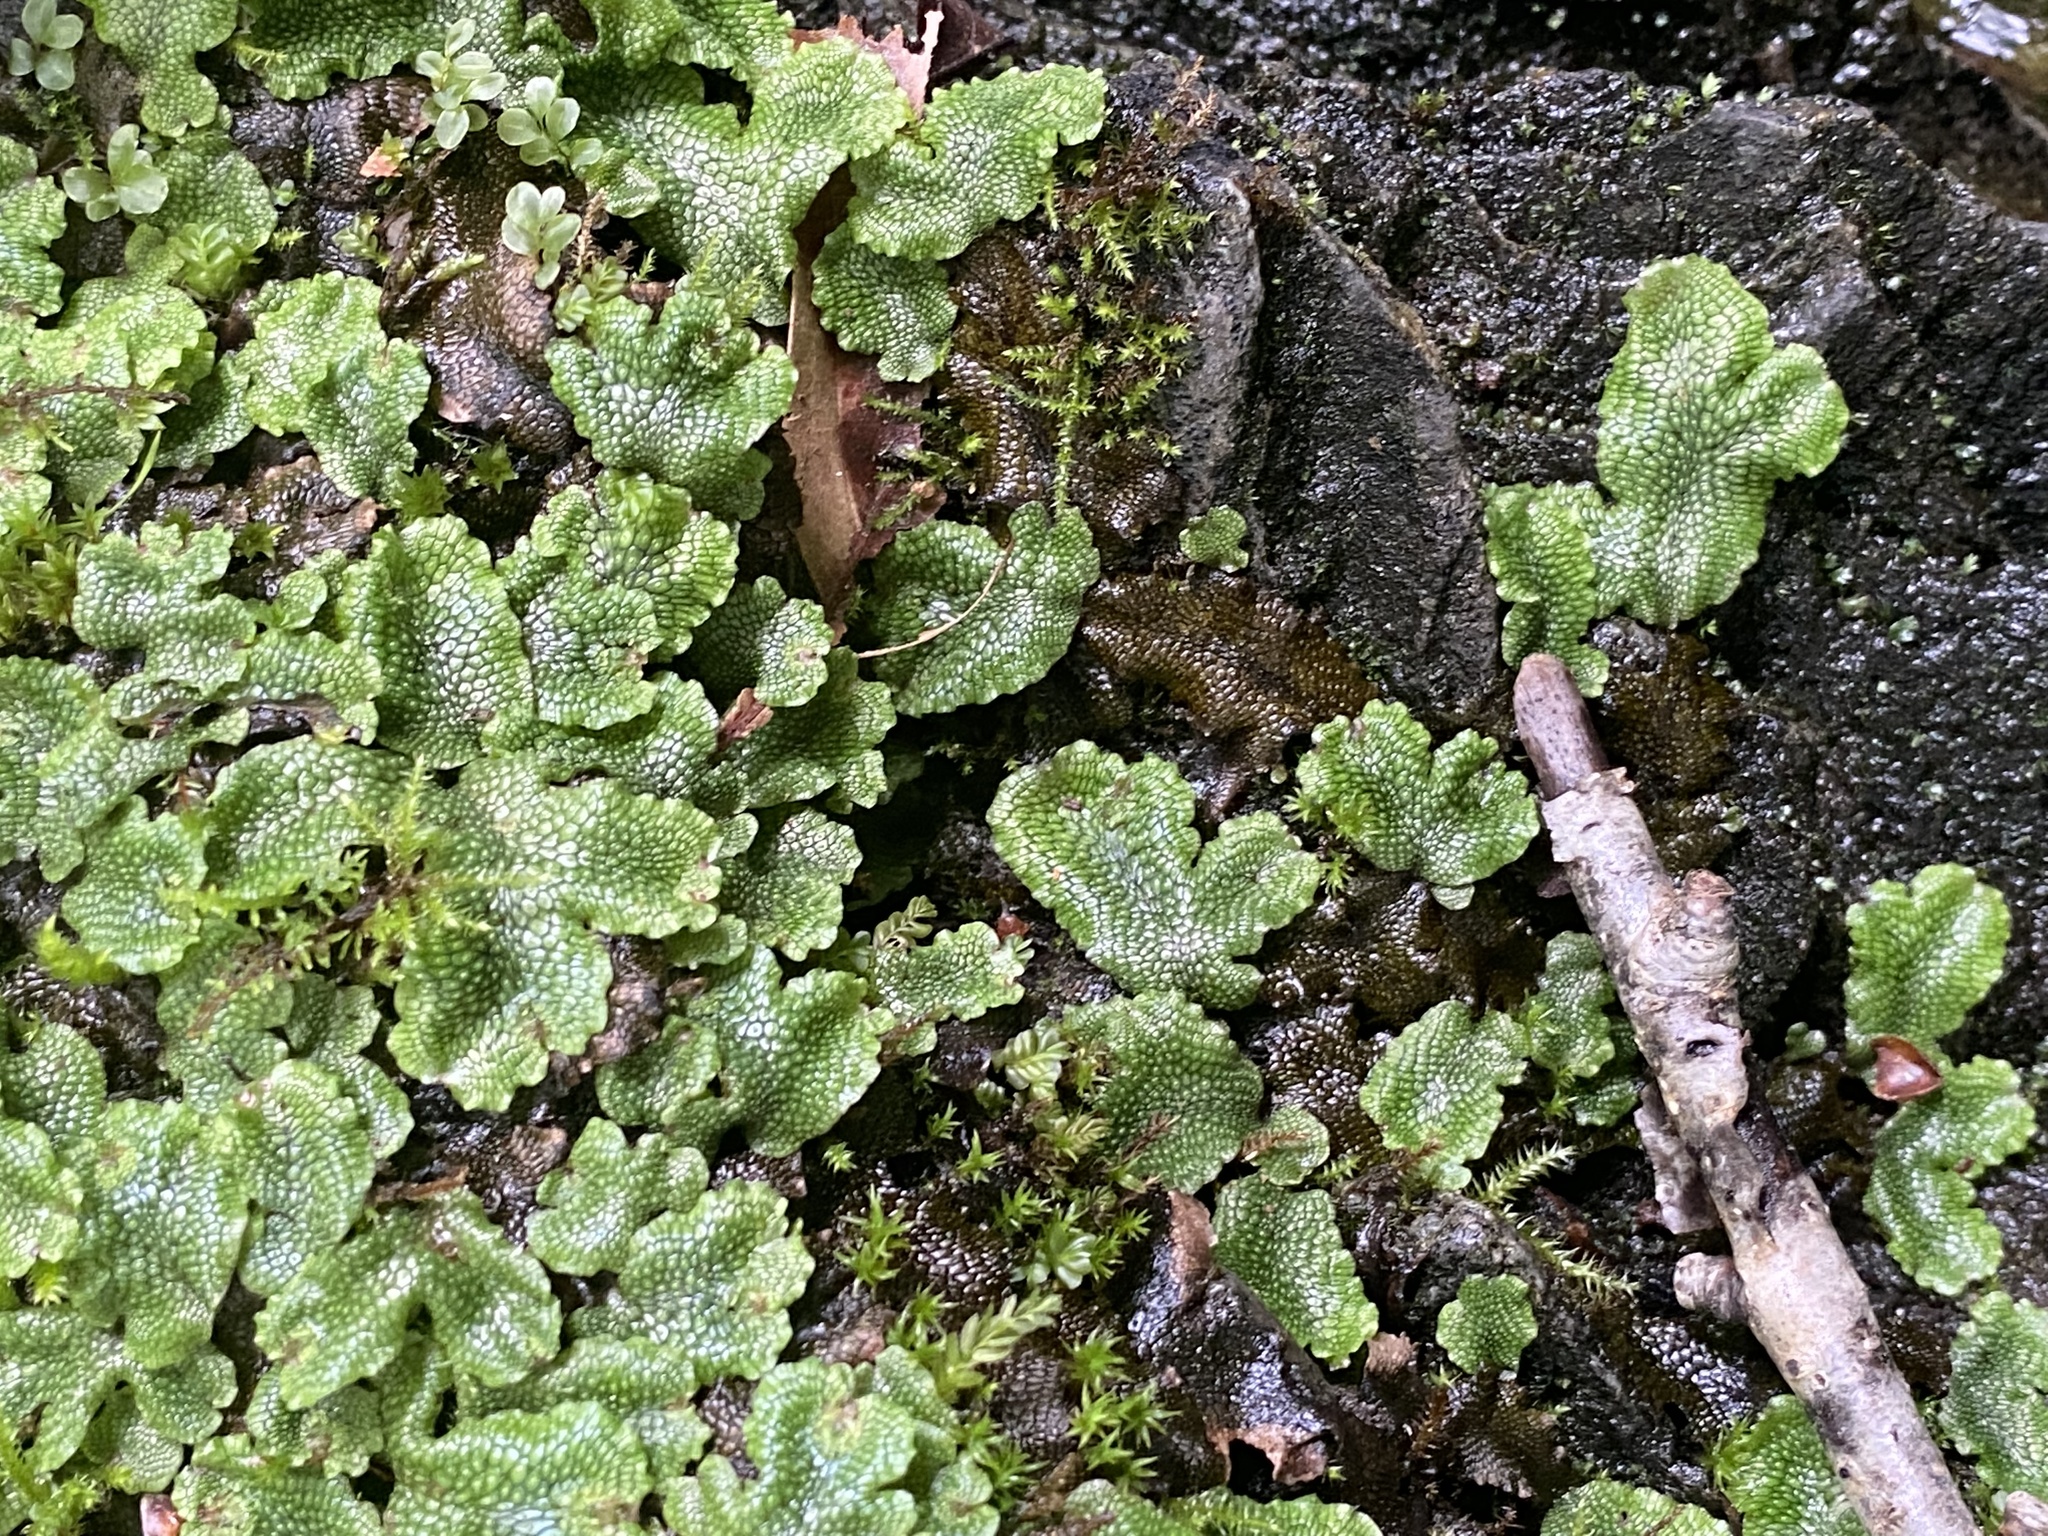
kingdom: Plantae
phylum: Marchantiophyta
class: Marchantiopsida
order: Marchantiales
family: Conocephalaceae
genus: Conocephalum
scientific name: Conocephalum salebrosum
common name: Cat-tongue liverwort
